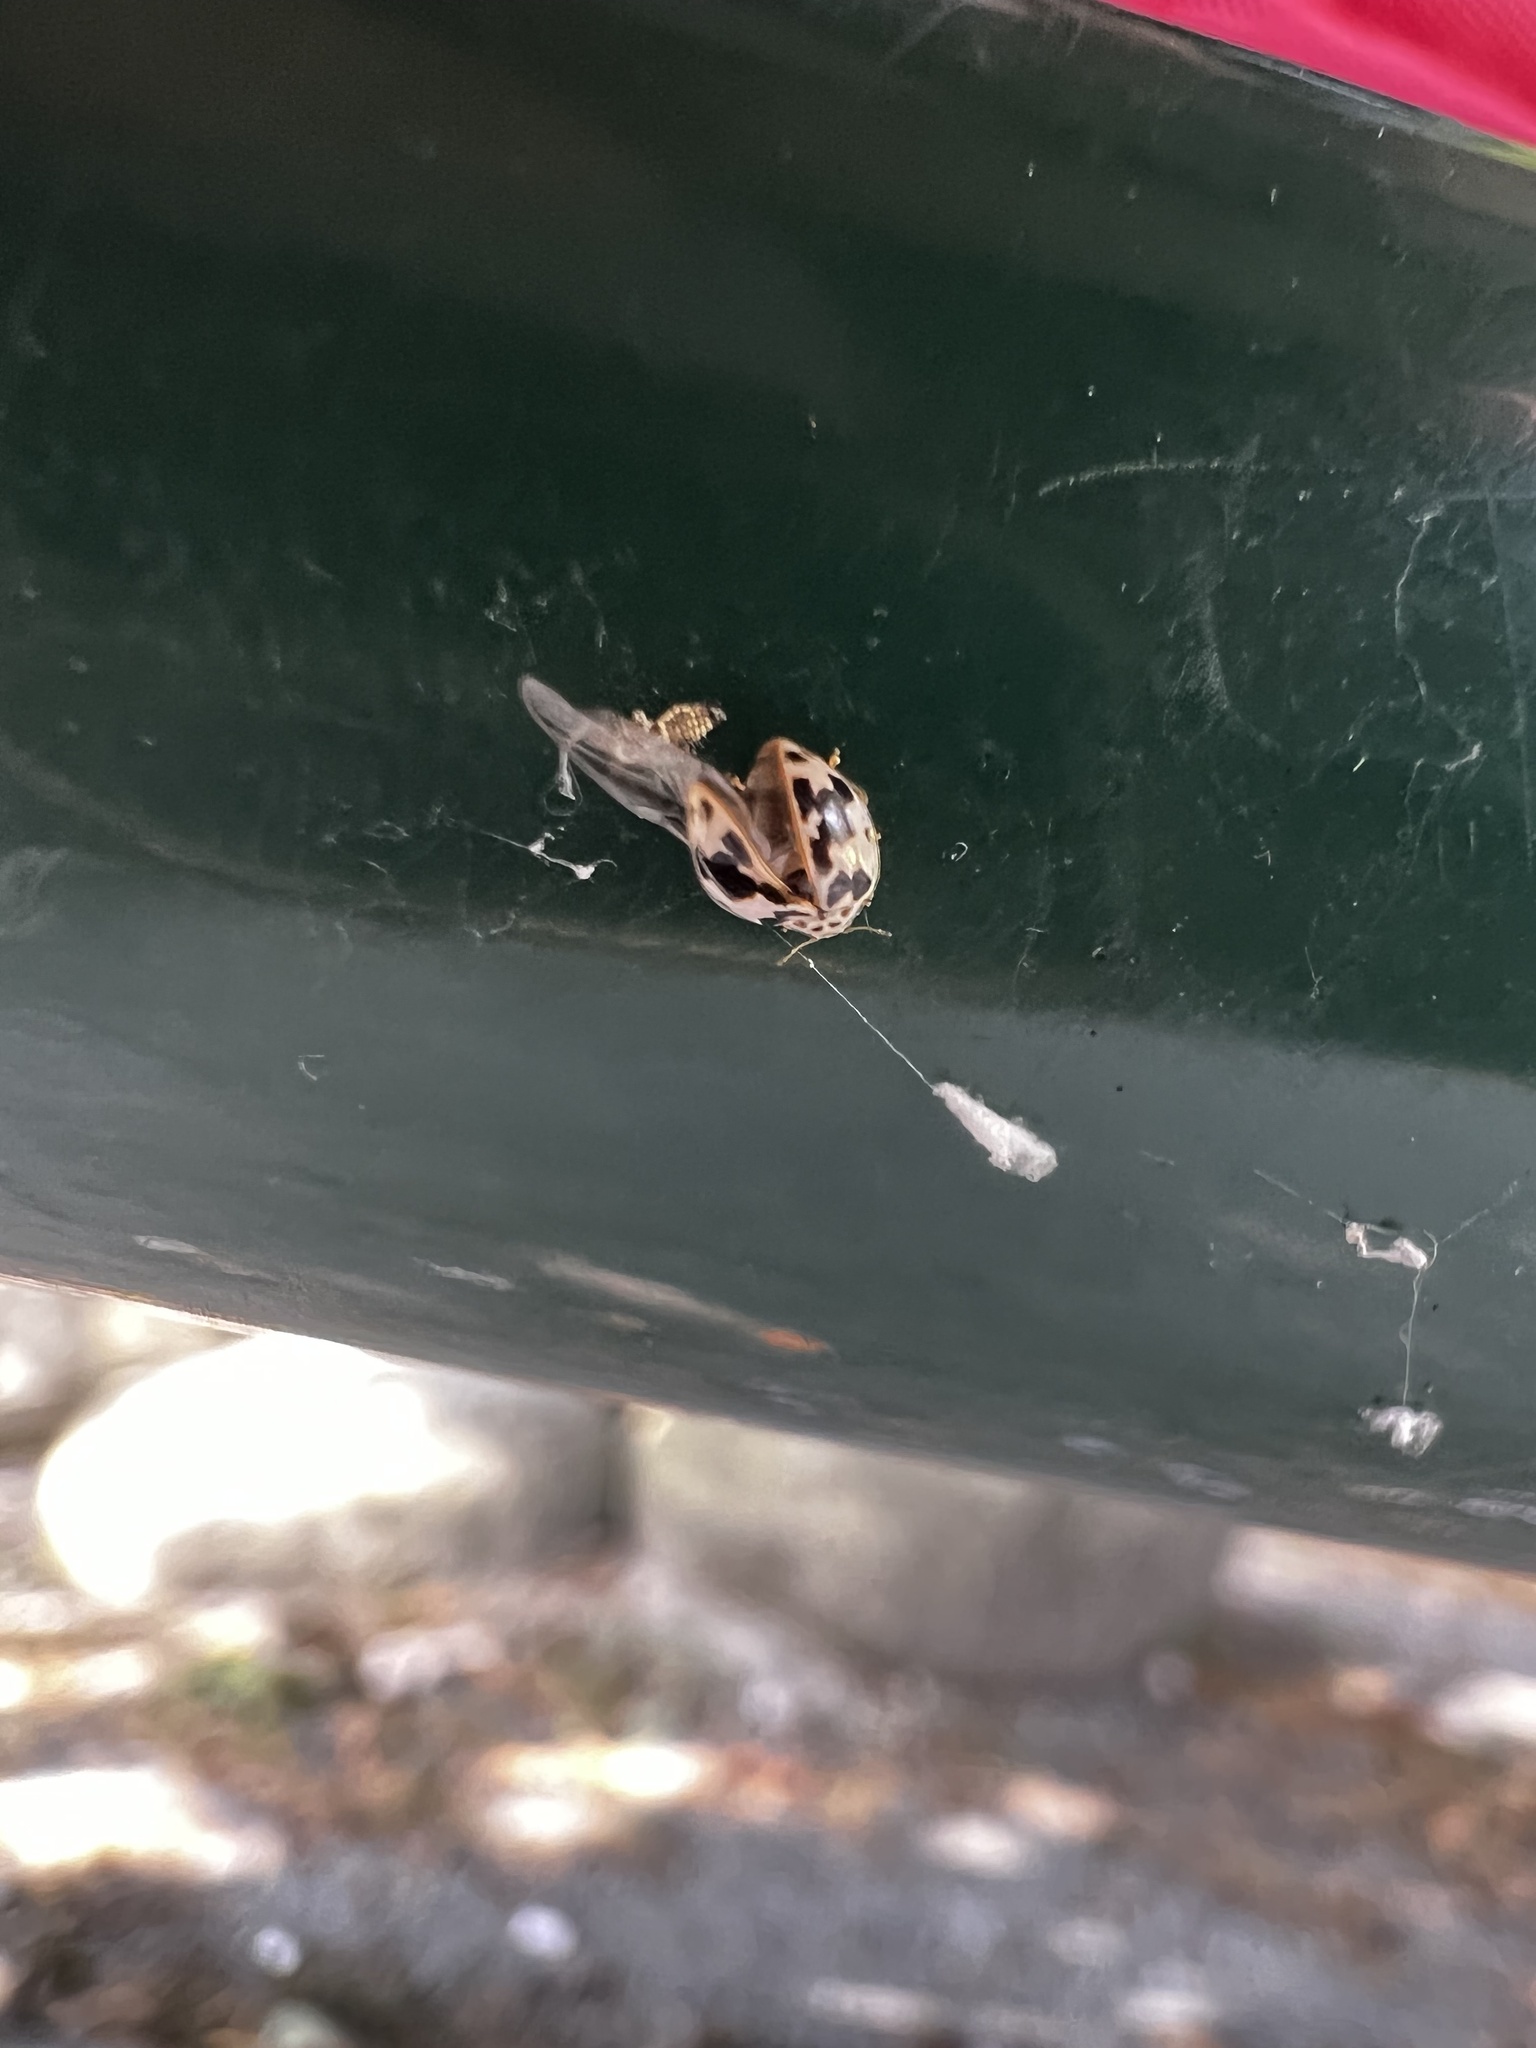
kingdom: Animalia
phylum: Arthropoda
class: Insecta
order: Coleoptera
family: Coccinellidae
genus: Psyllobora
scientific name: Psyllobora borealis
